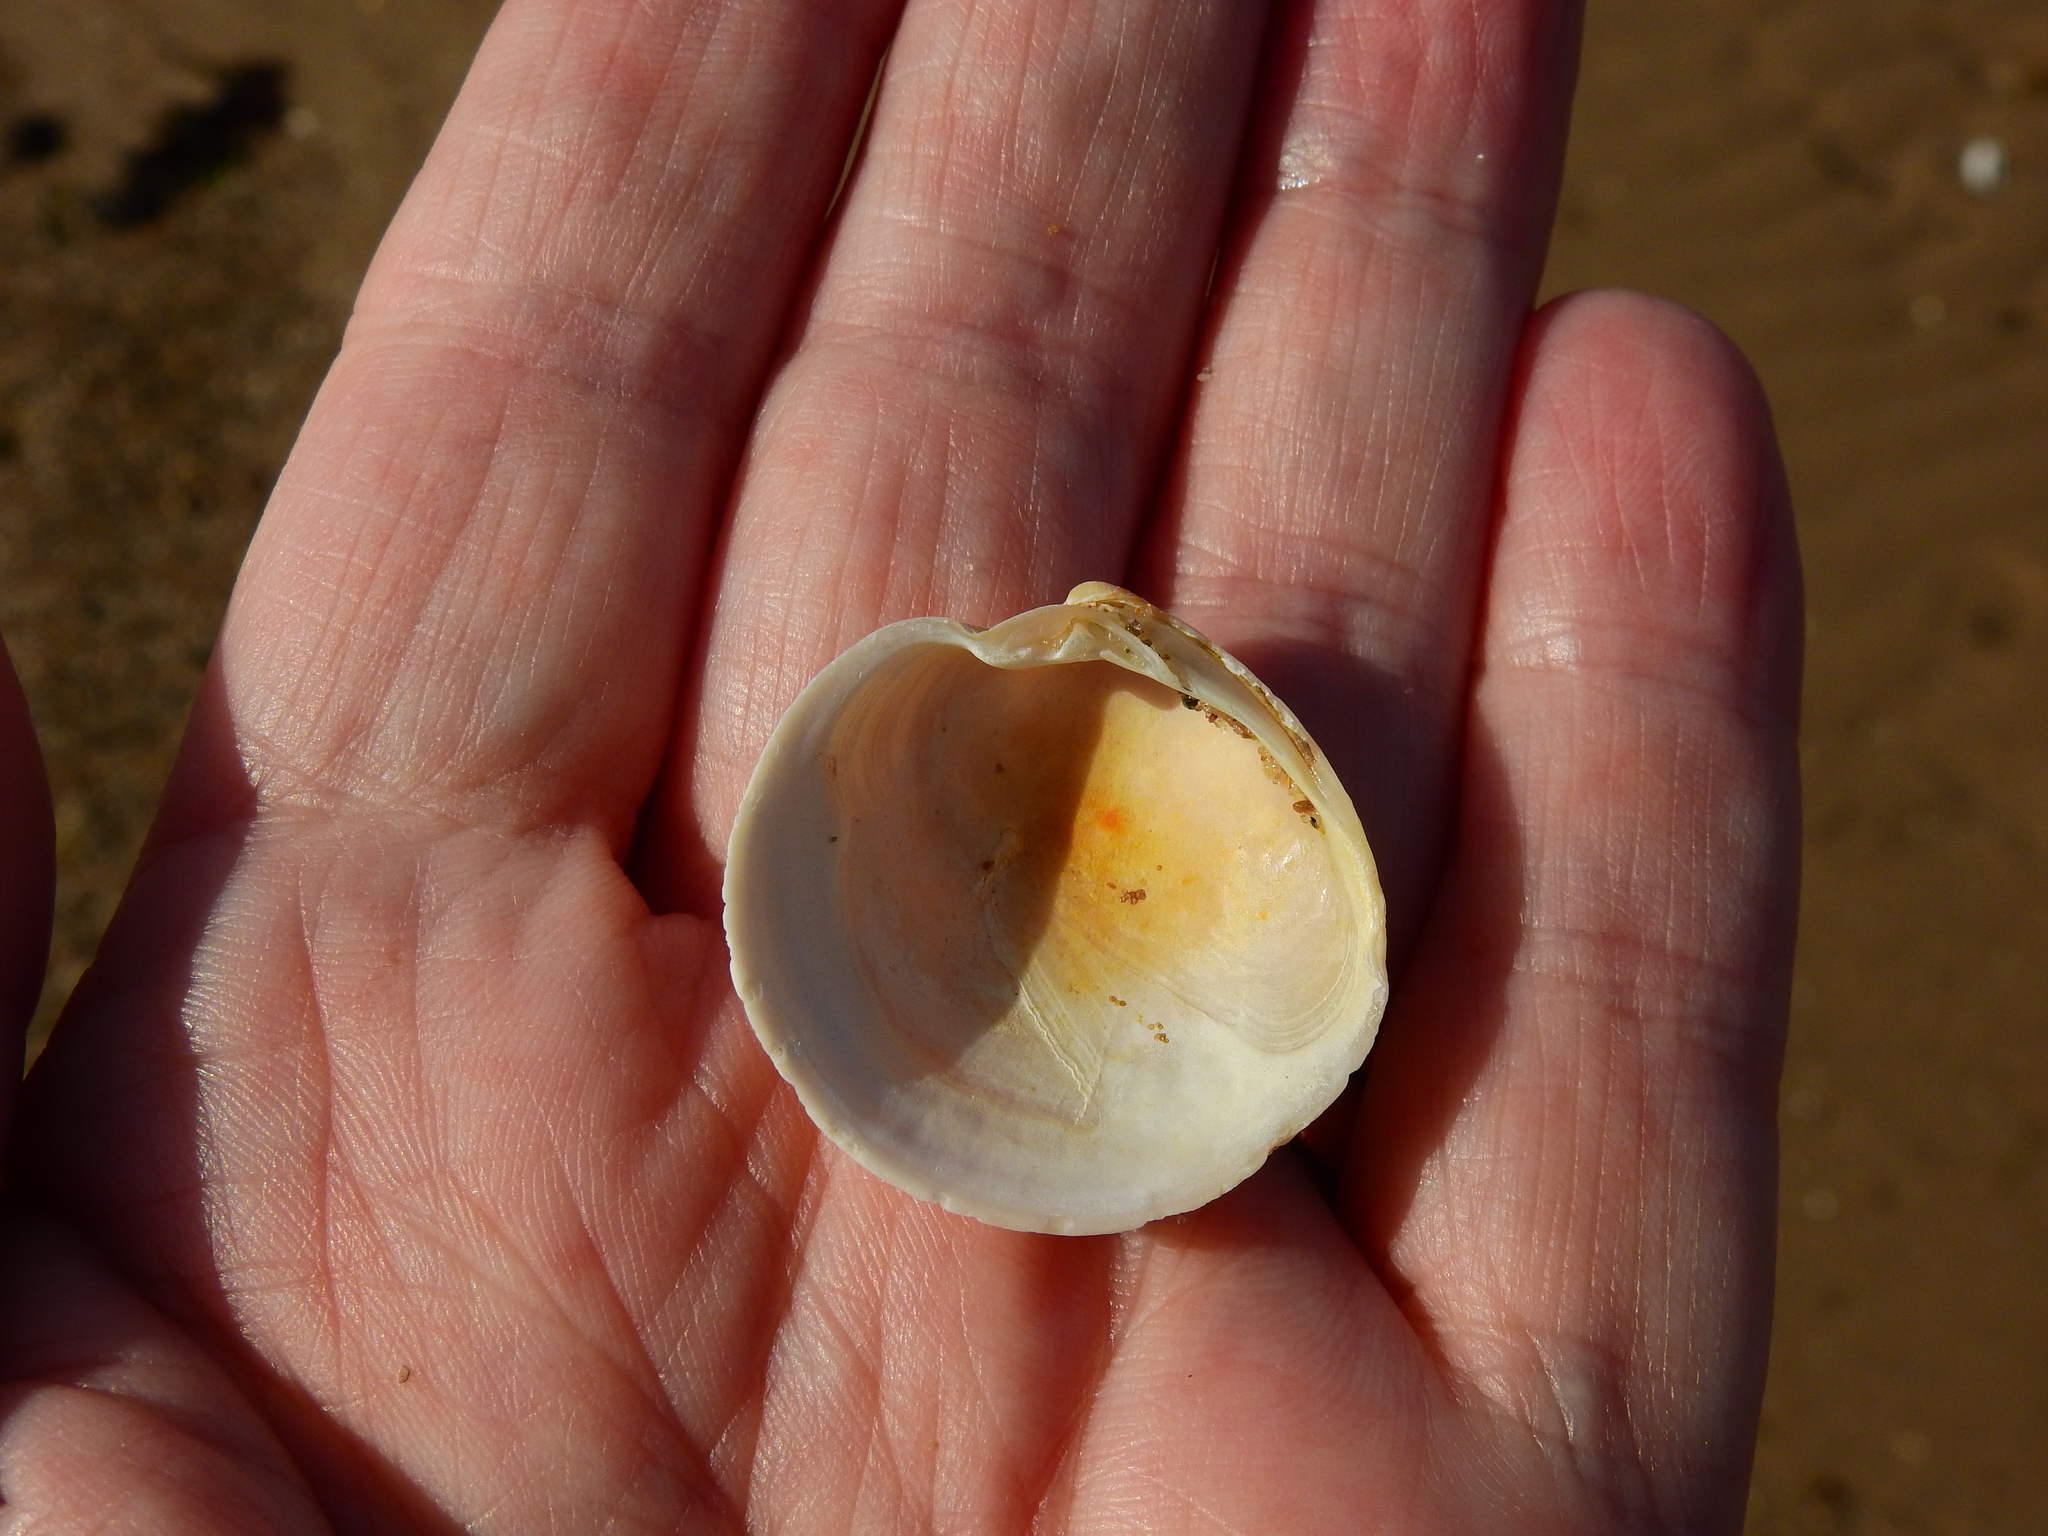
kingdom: Animalia
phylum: Mollusca
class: Bivalvia
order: Venerida
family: Veneridae
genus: Dosinia
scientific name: Dosinia exoleta
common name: Rayed artemis
